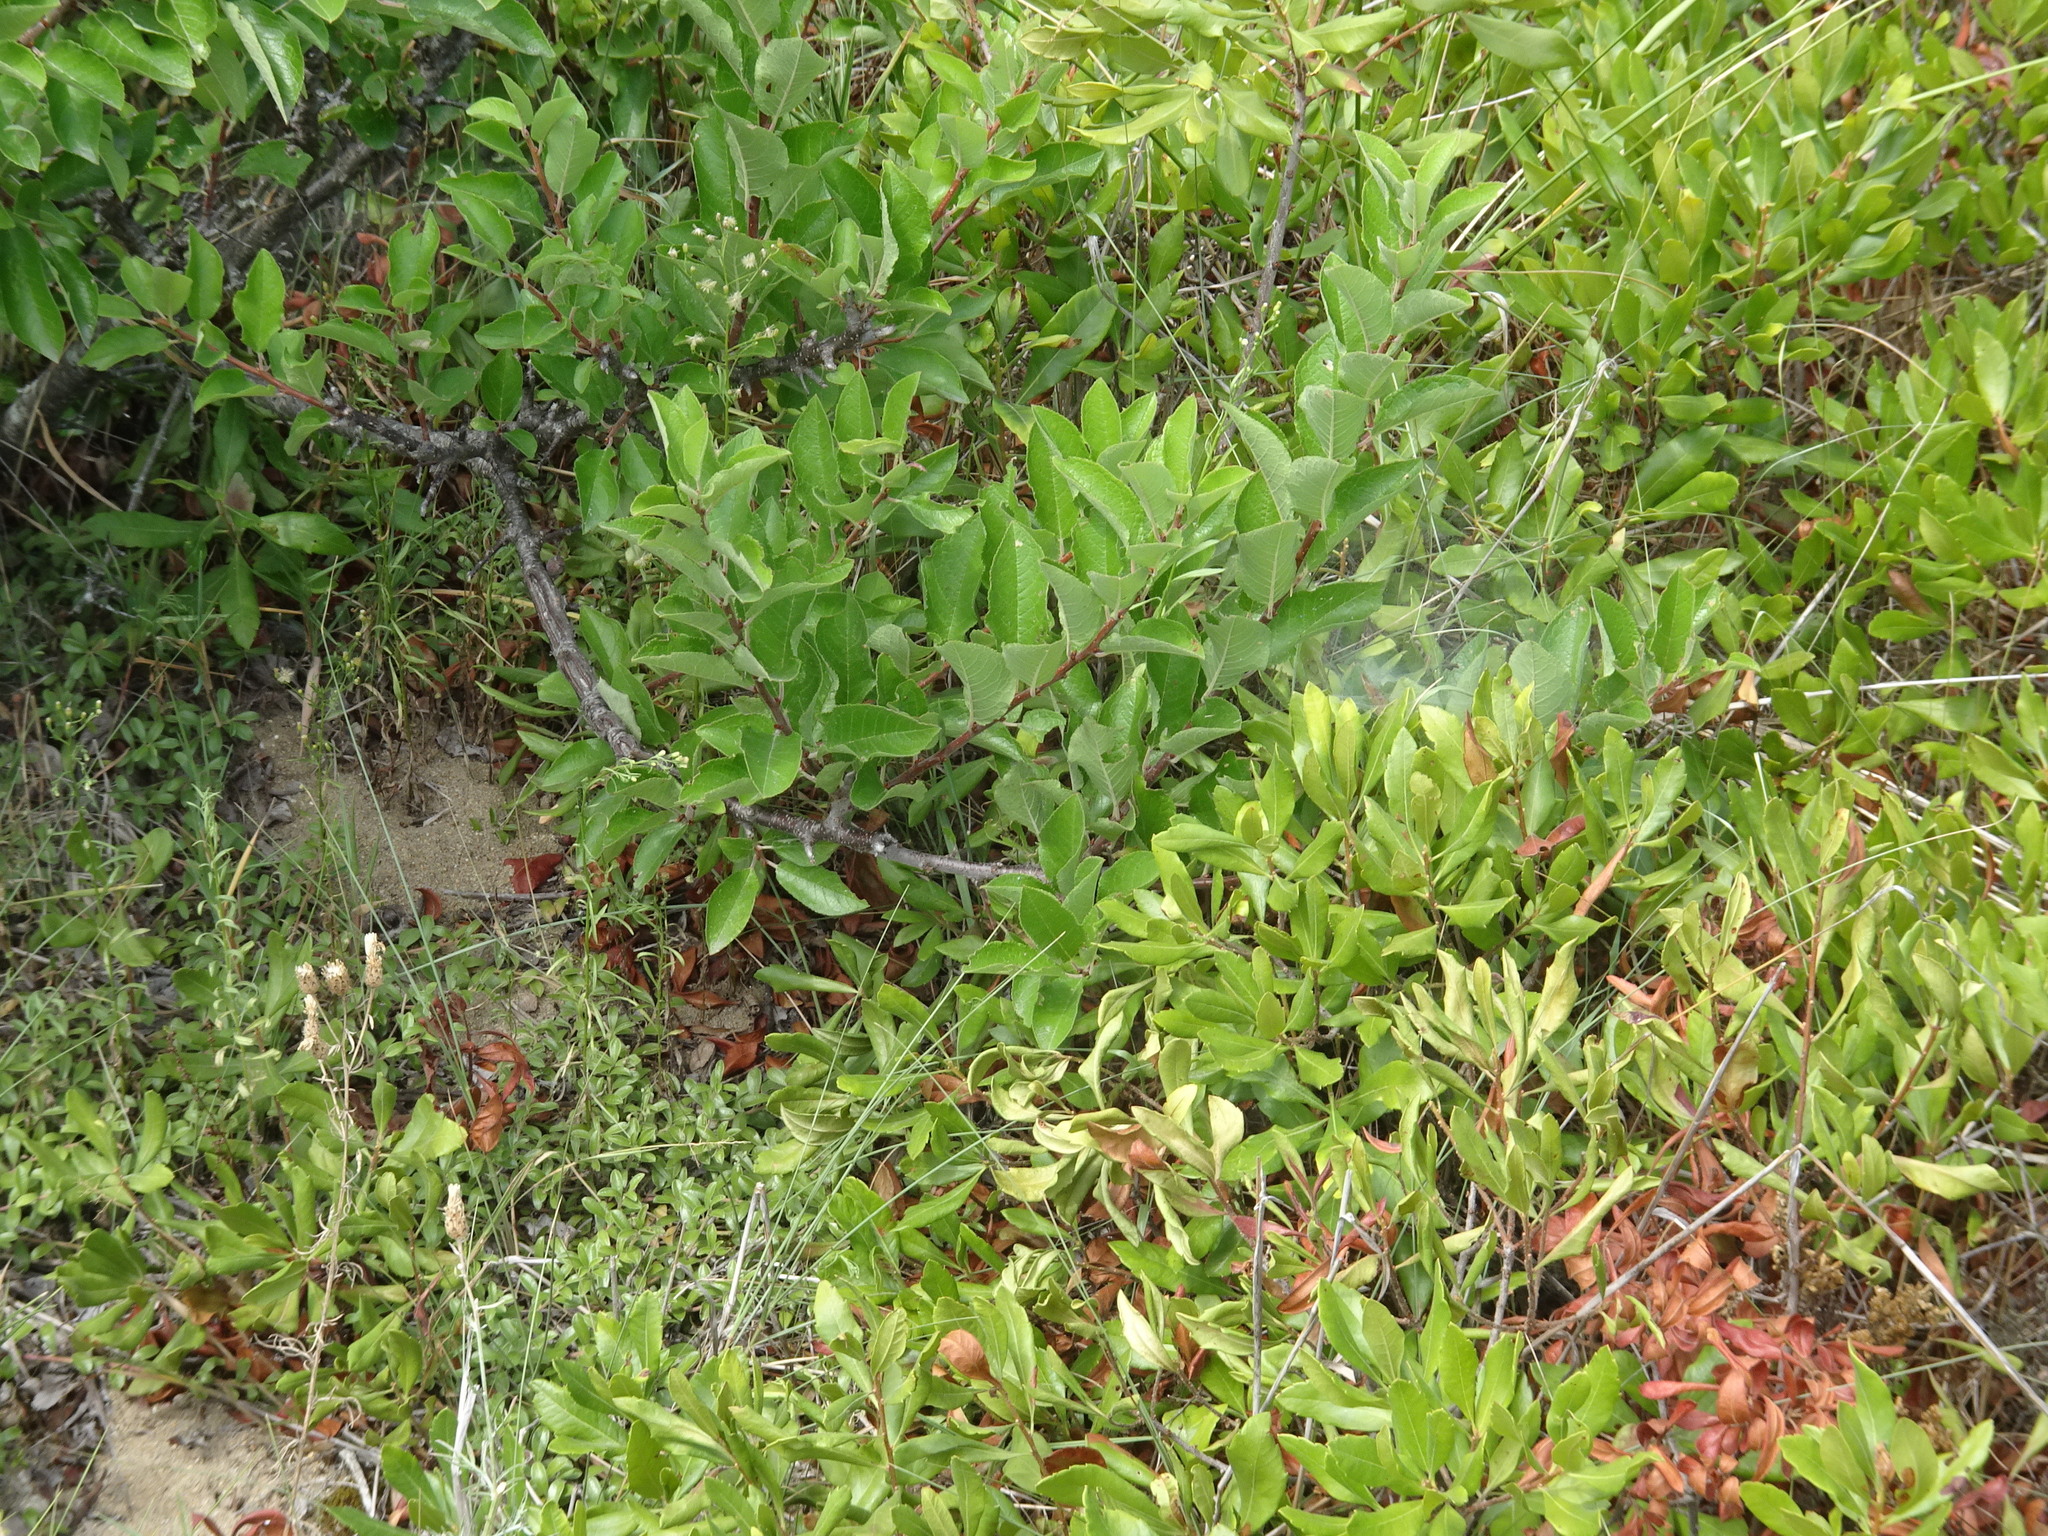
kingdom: Plantae
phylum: Tracheophyta
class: Magnoliopsida
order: Rosales
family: Rosaceae
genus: Prunus
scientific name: Prunus maritima
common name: Beach plum
